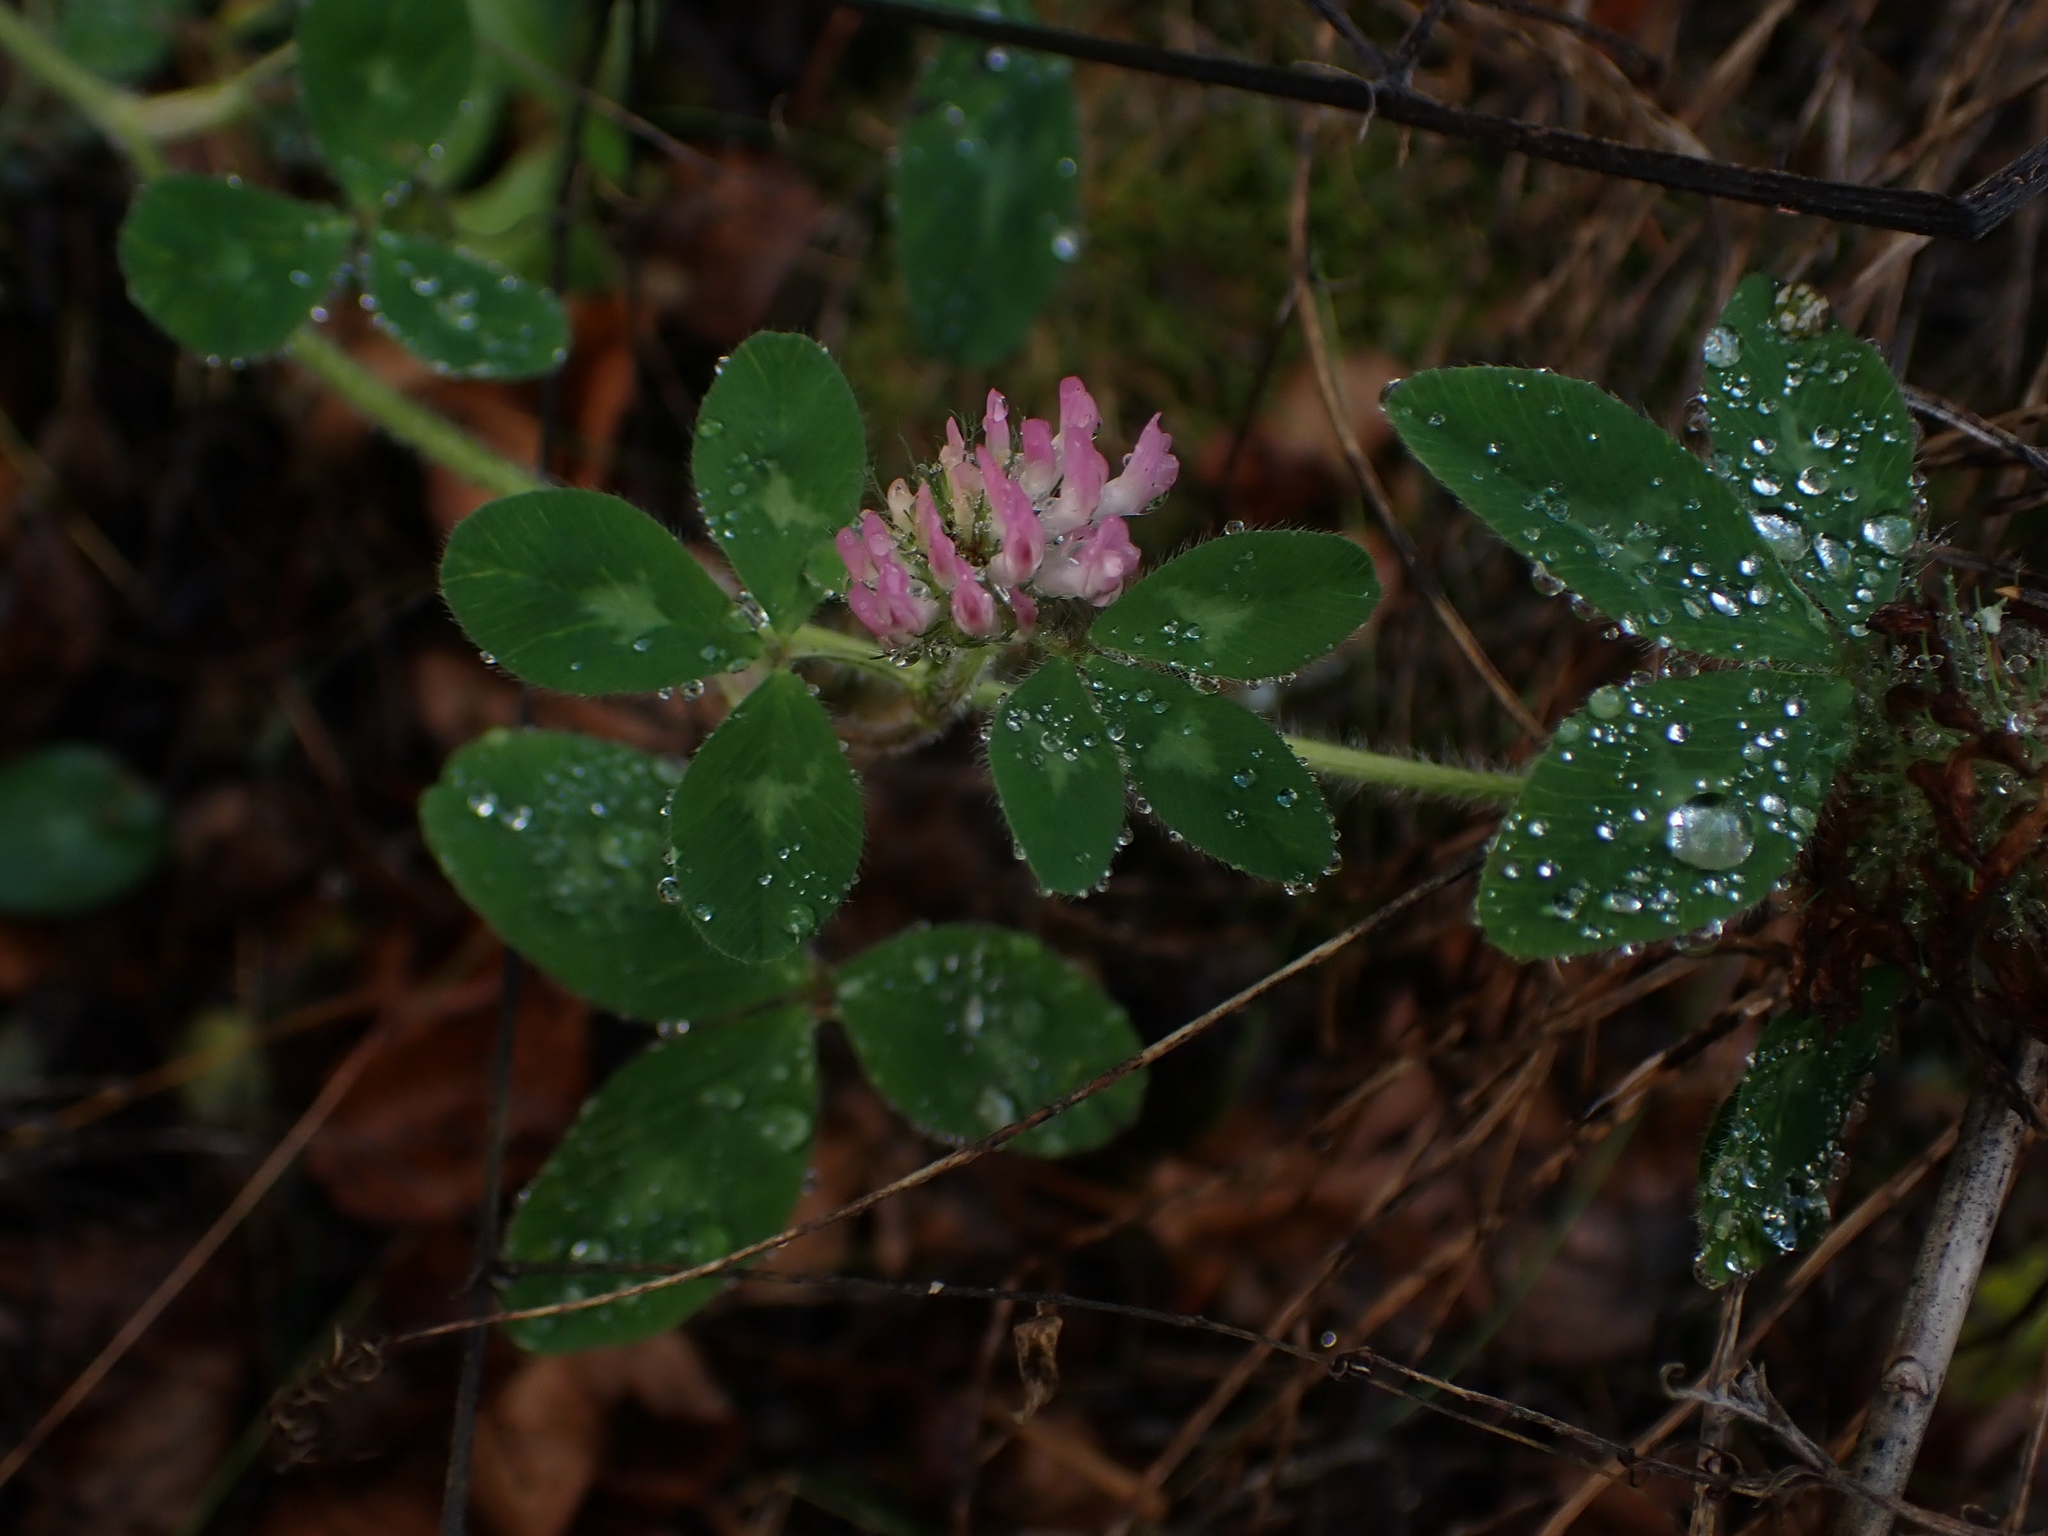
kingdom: Plantae
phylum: Tracheophyta
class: Magnoliopsida
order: Fabales
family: Fabaceae
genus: Trifolium
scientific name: Trifolium pratense
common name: Red clover
